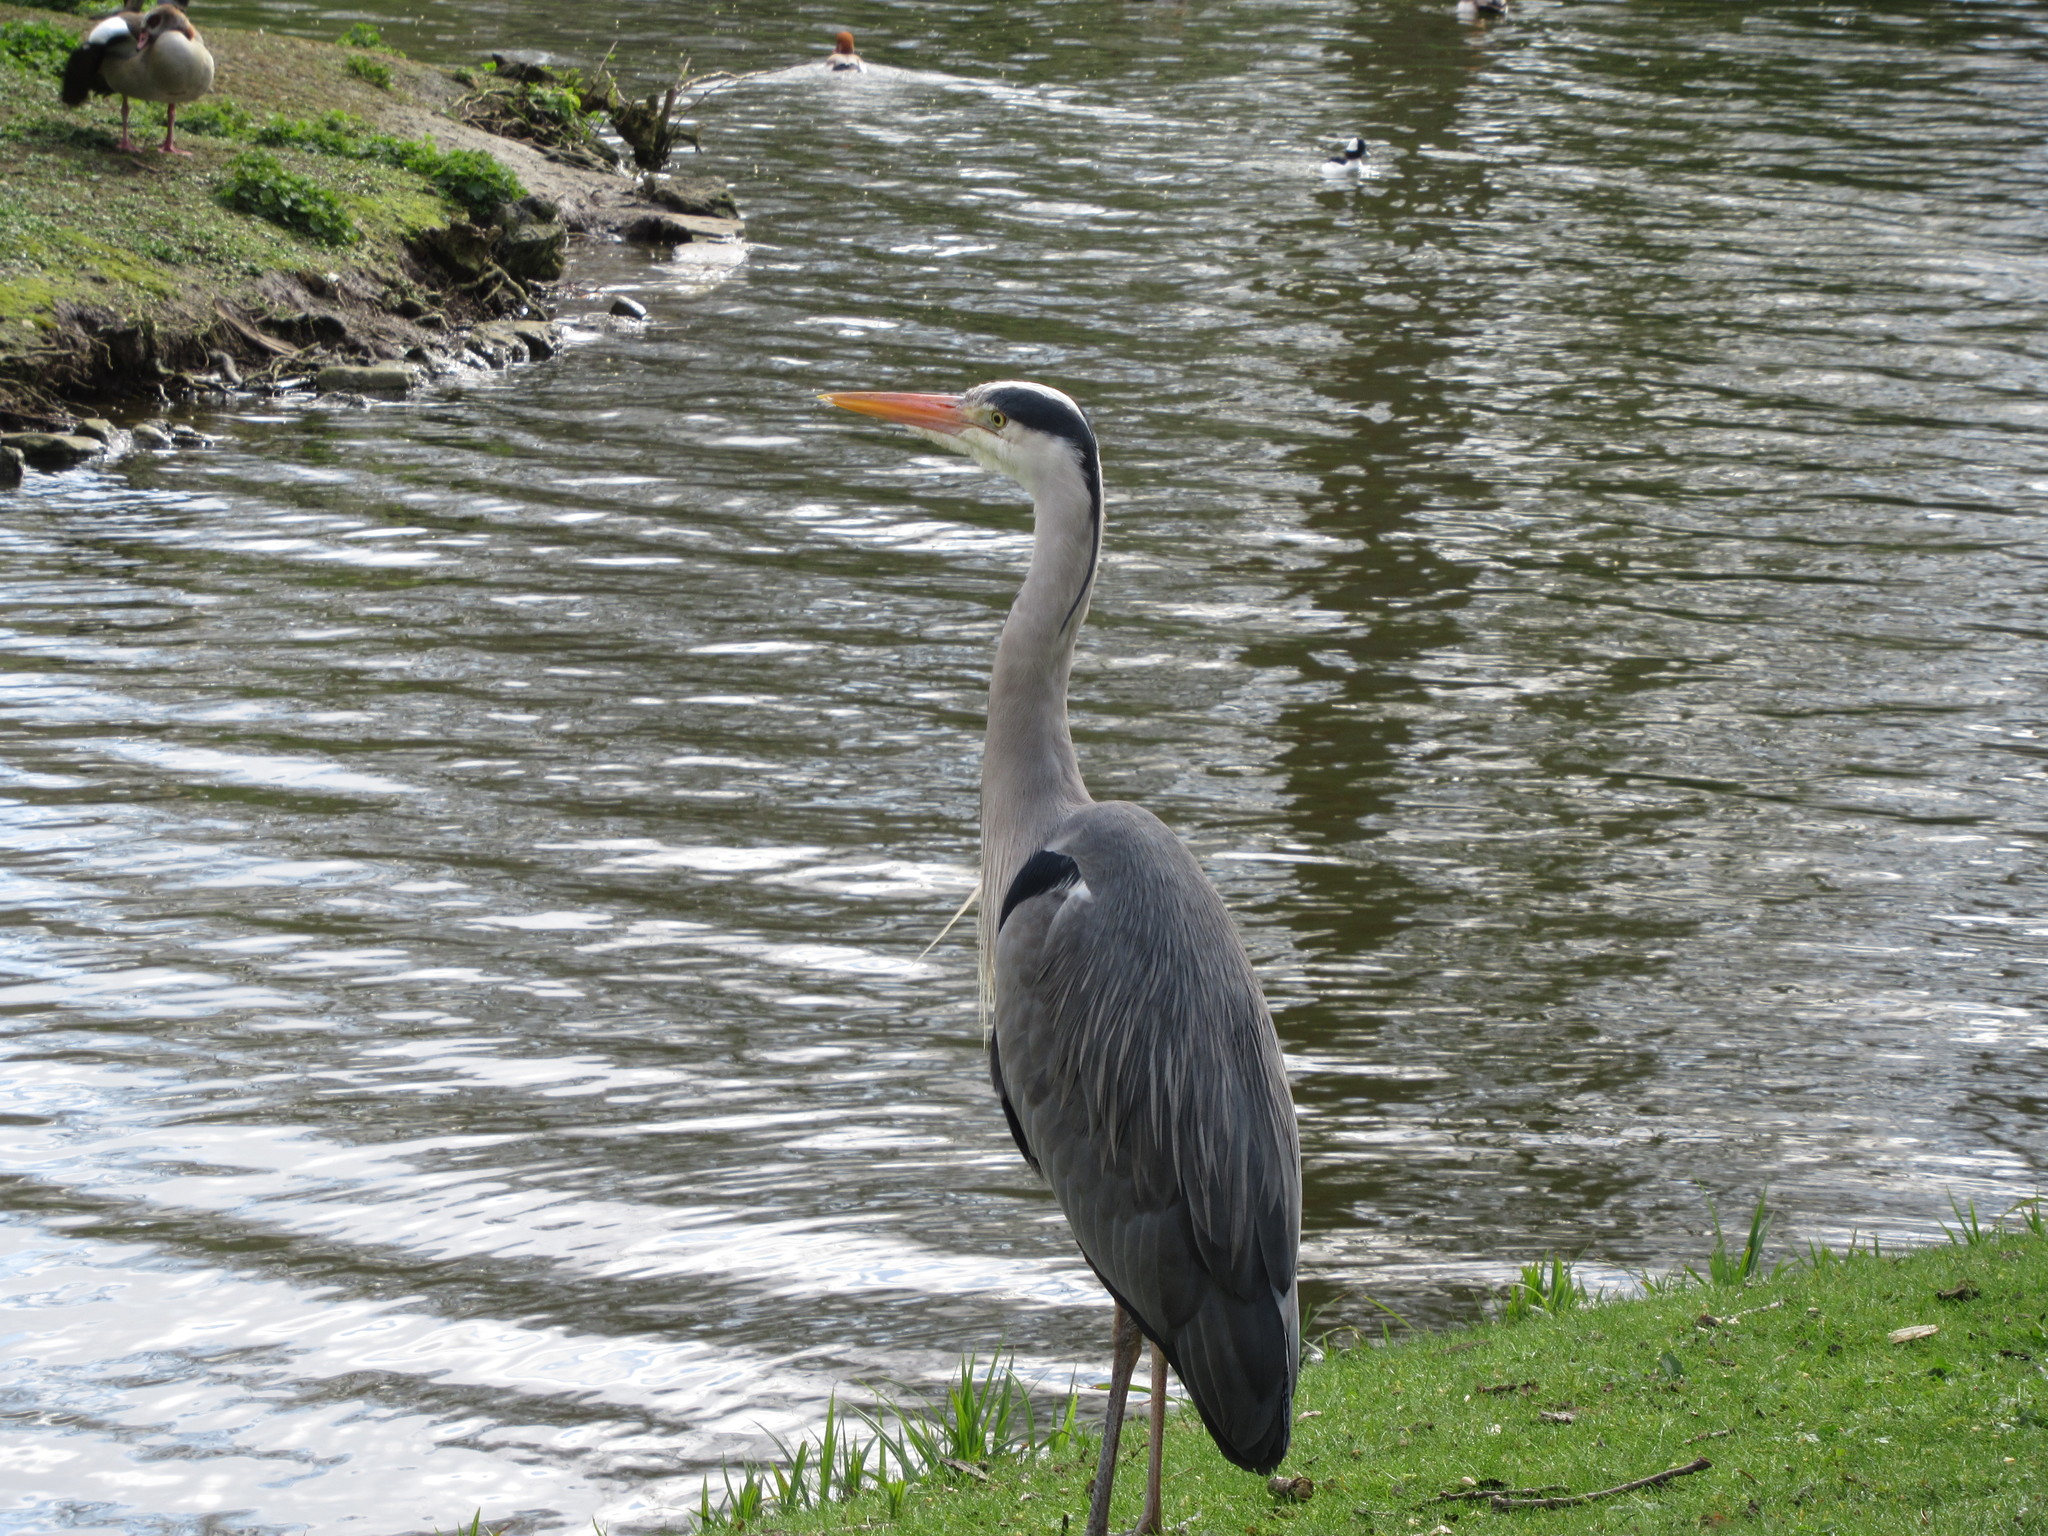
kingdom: Animalia
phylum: Chordata
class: Aves
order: Pelecaniformes
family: Ardeidae
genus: Ardea
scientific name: Ardea cinerea
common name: Grey heron
